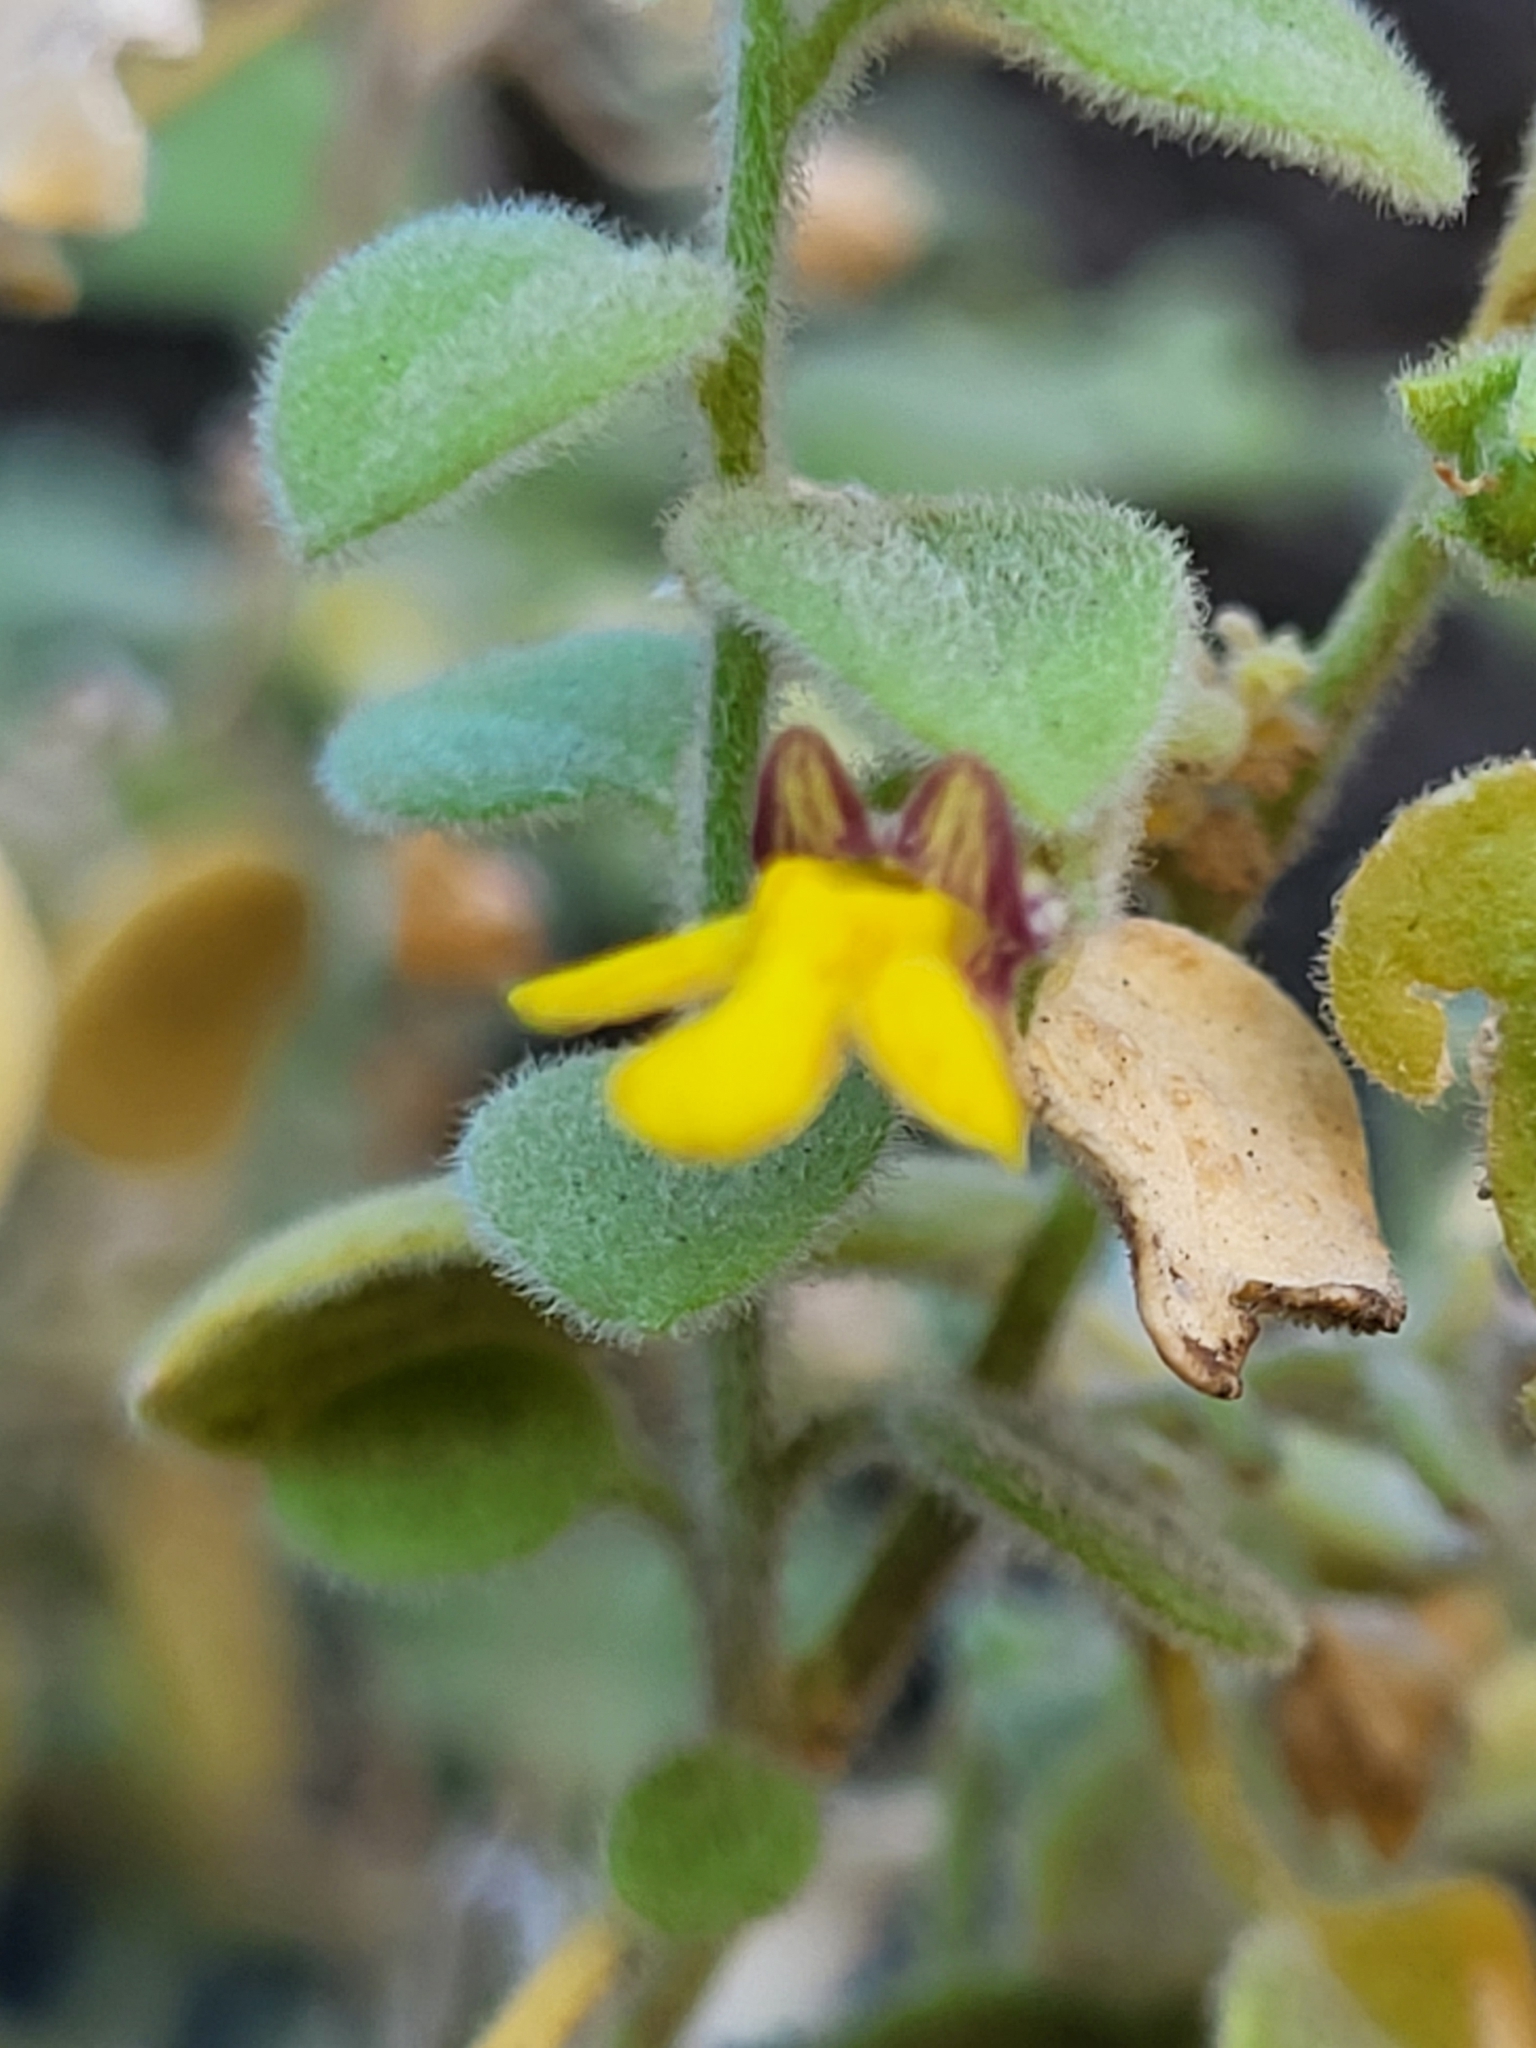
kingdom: Plantae
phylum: Tracheophyta
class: Magnoliopsida
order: Lamiales
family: Plantaginaceae
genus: Nanorrhinum
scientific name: Nanorrhinum dichondrifolium
